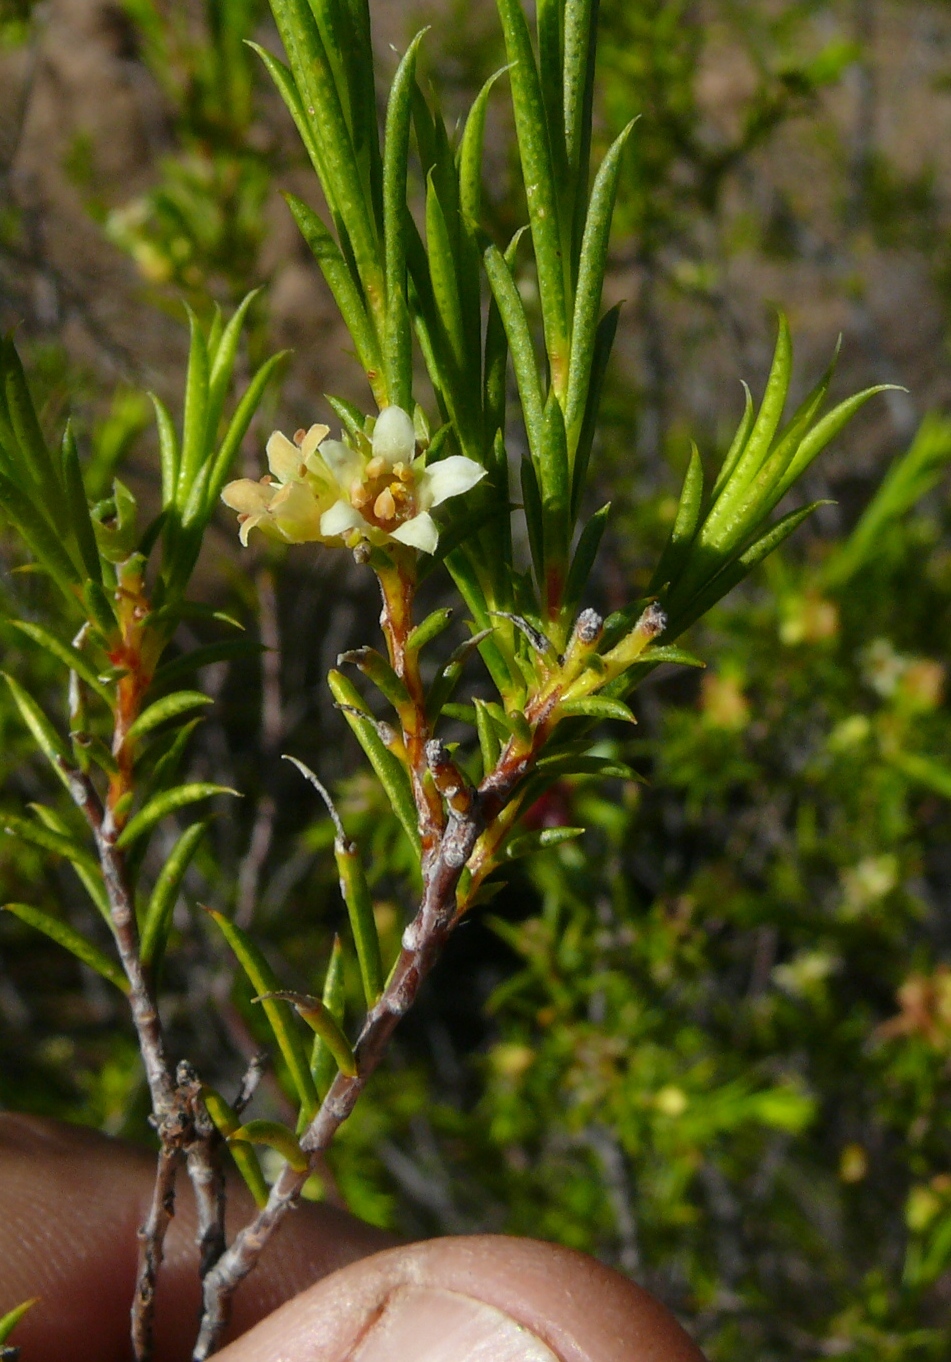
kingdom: Plantae
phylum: Tracheophyta
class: Magnoliopsida
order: Sapindales
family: Rutaceae
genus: Diosma
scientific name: Diosma acmaeophylla
